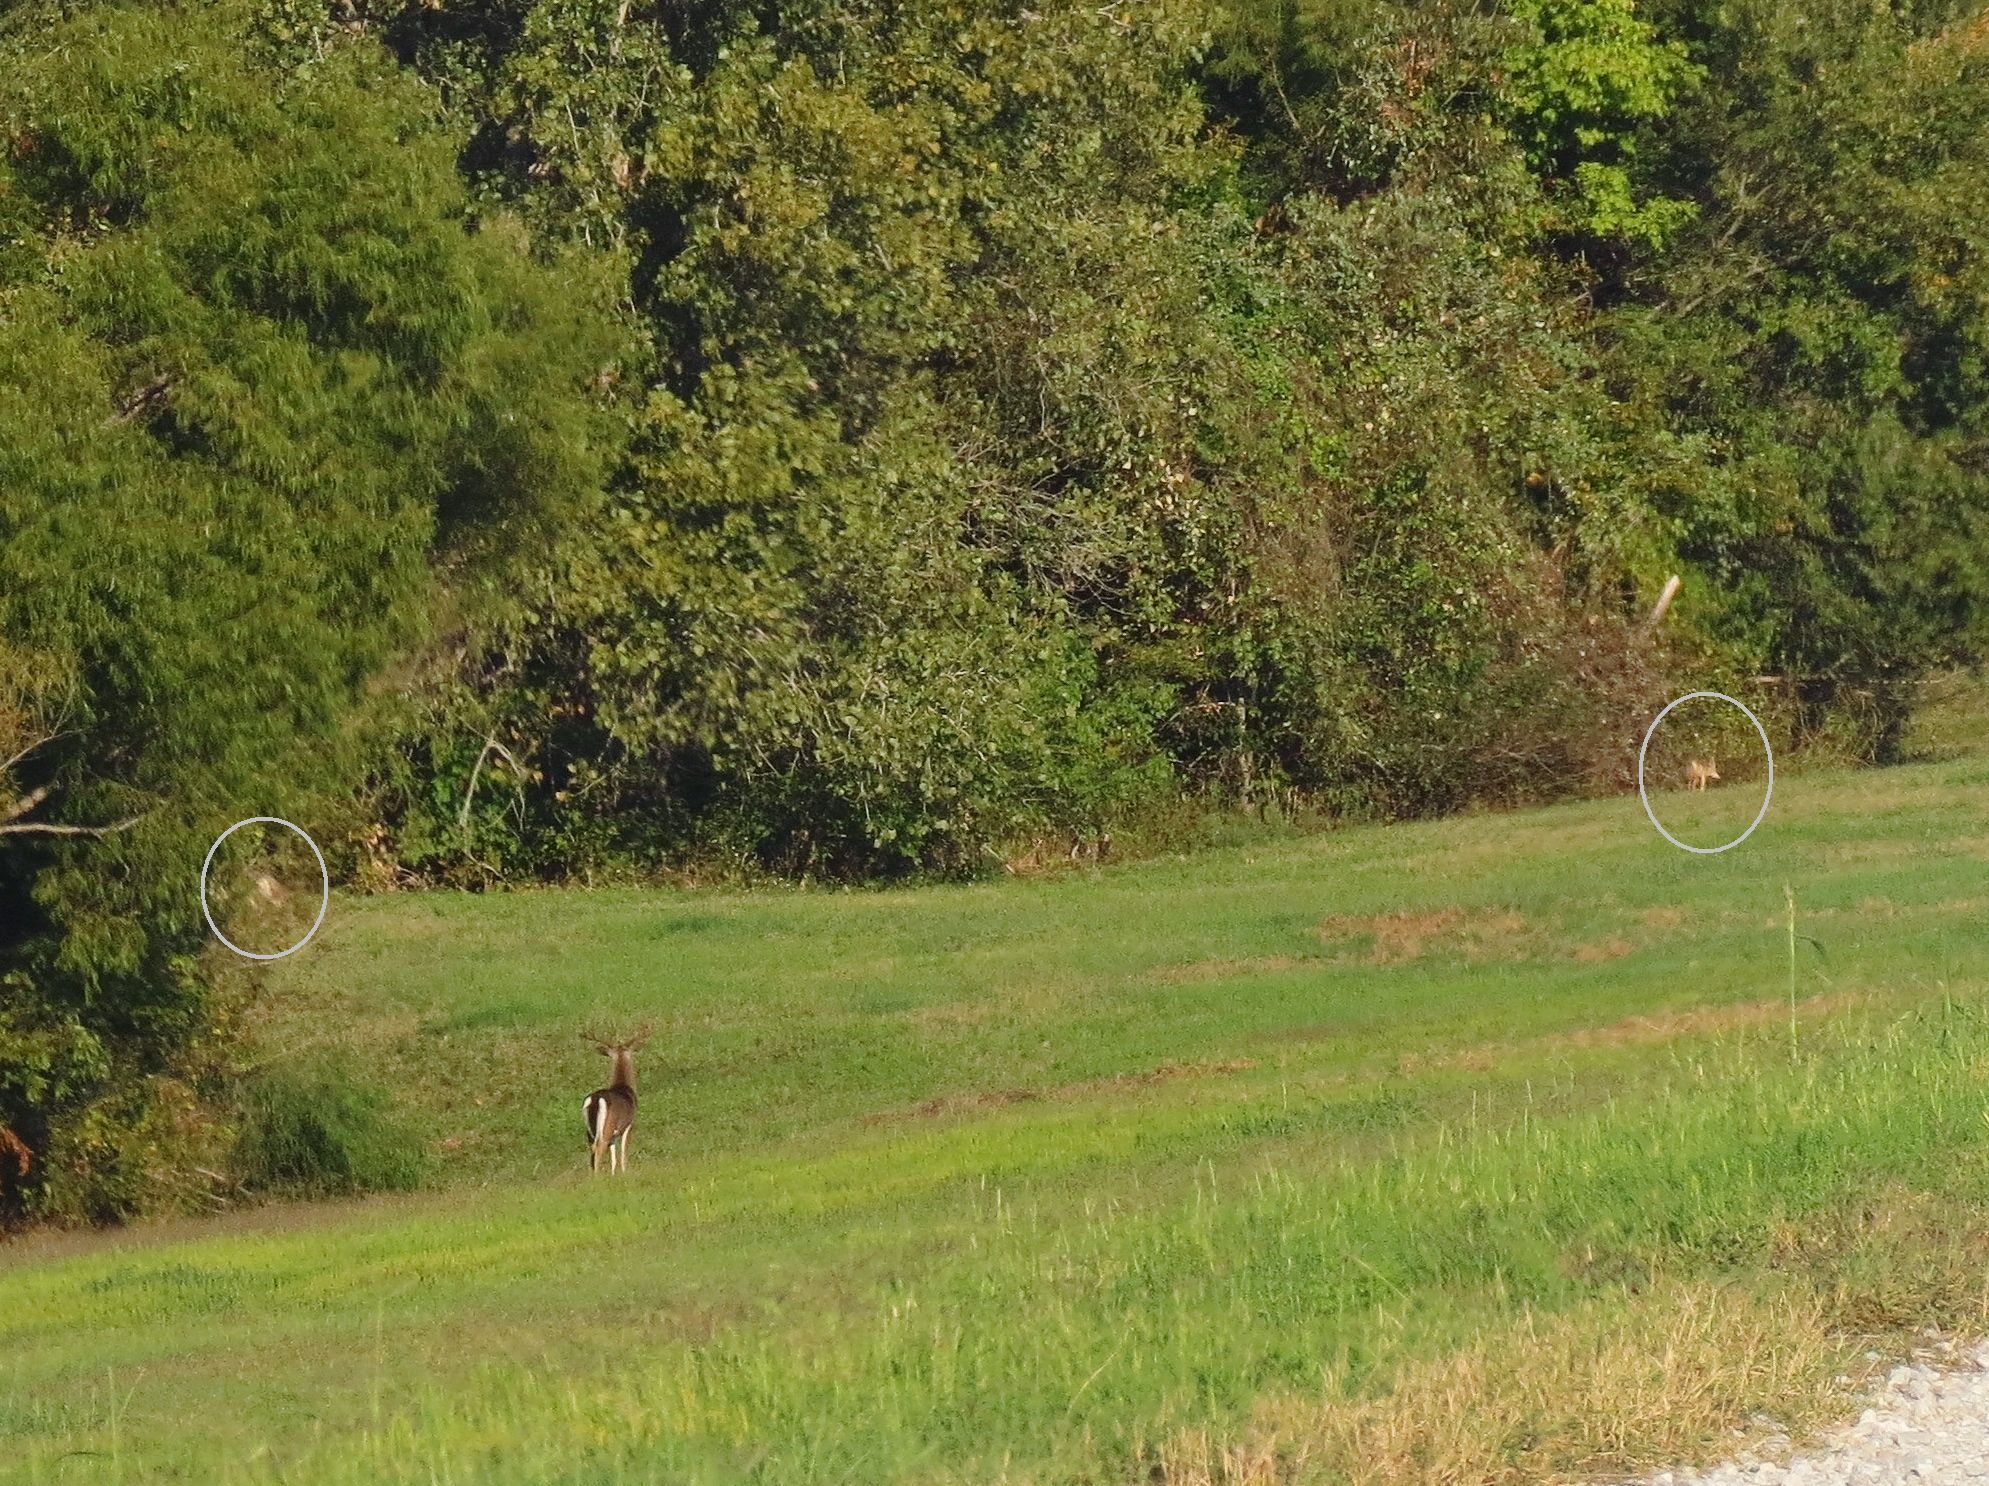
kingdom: Animalia
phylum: Chordata
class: Mammalia
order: Carnivora
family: Canidae
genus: Canis
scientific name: Canis latrans
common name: Coyote
